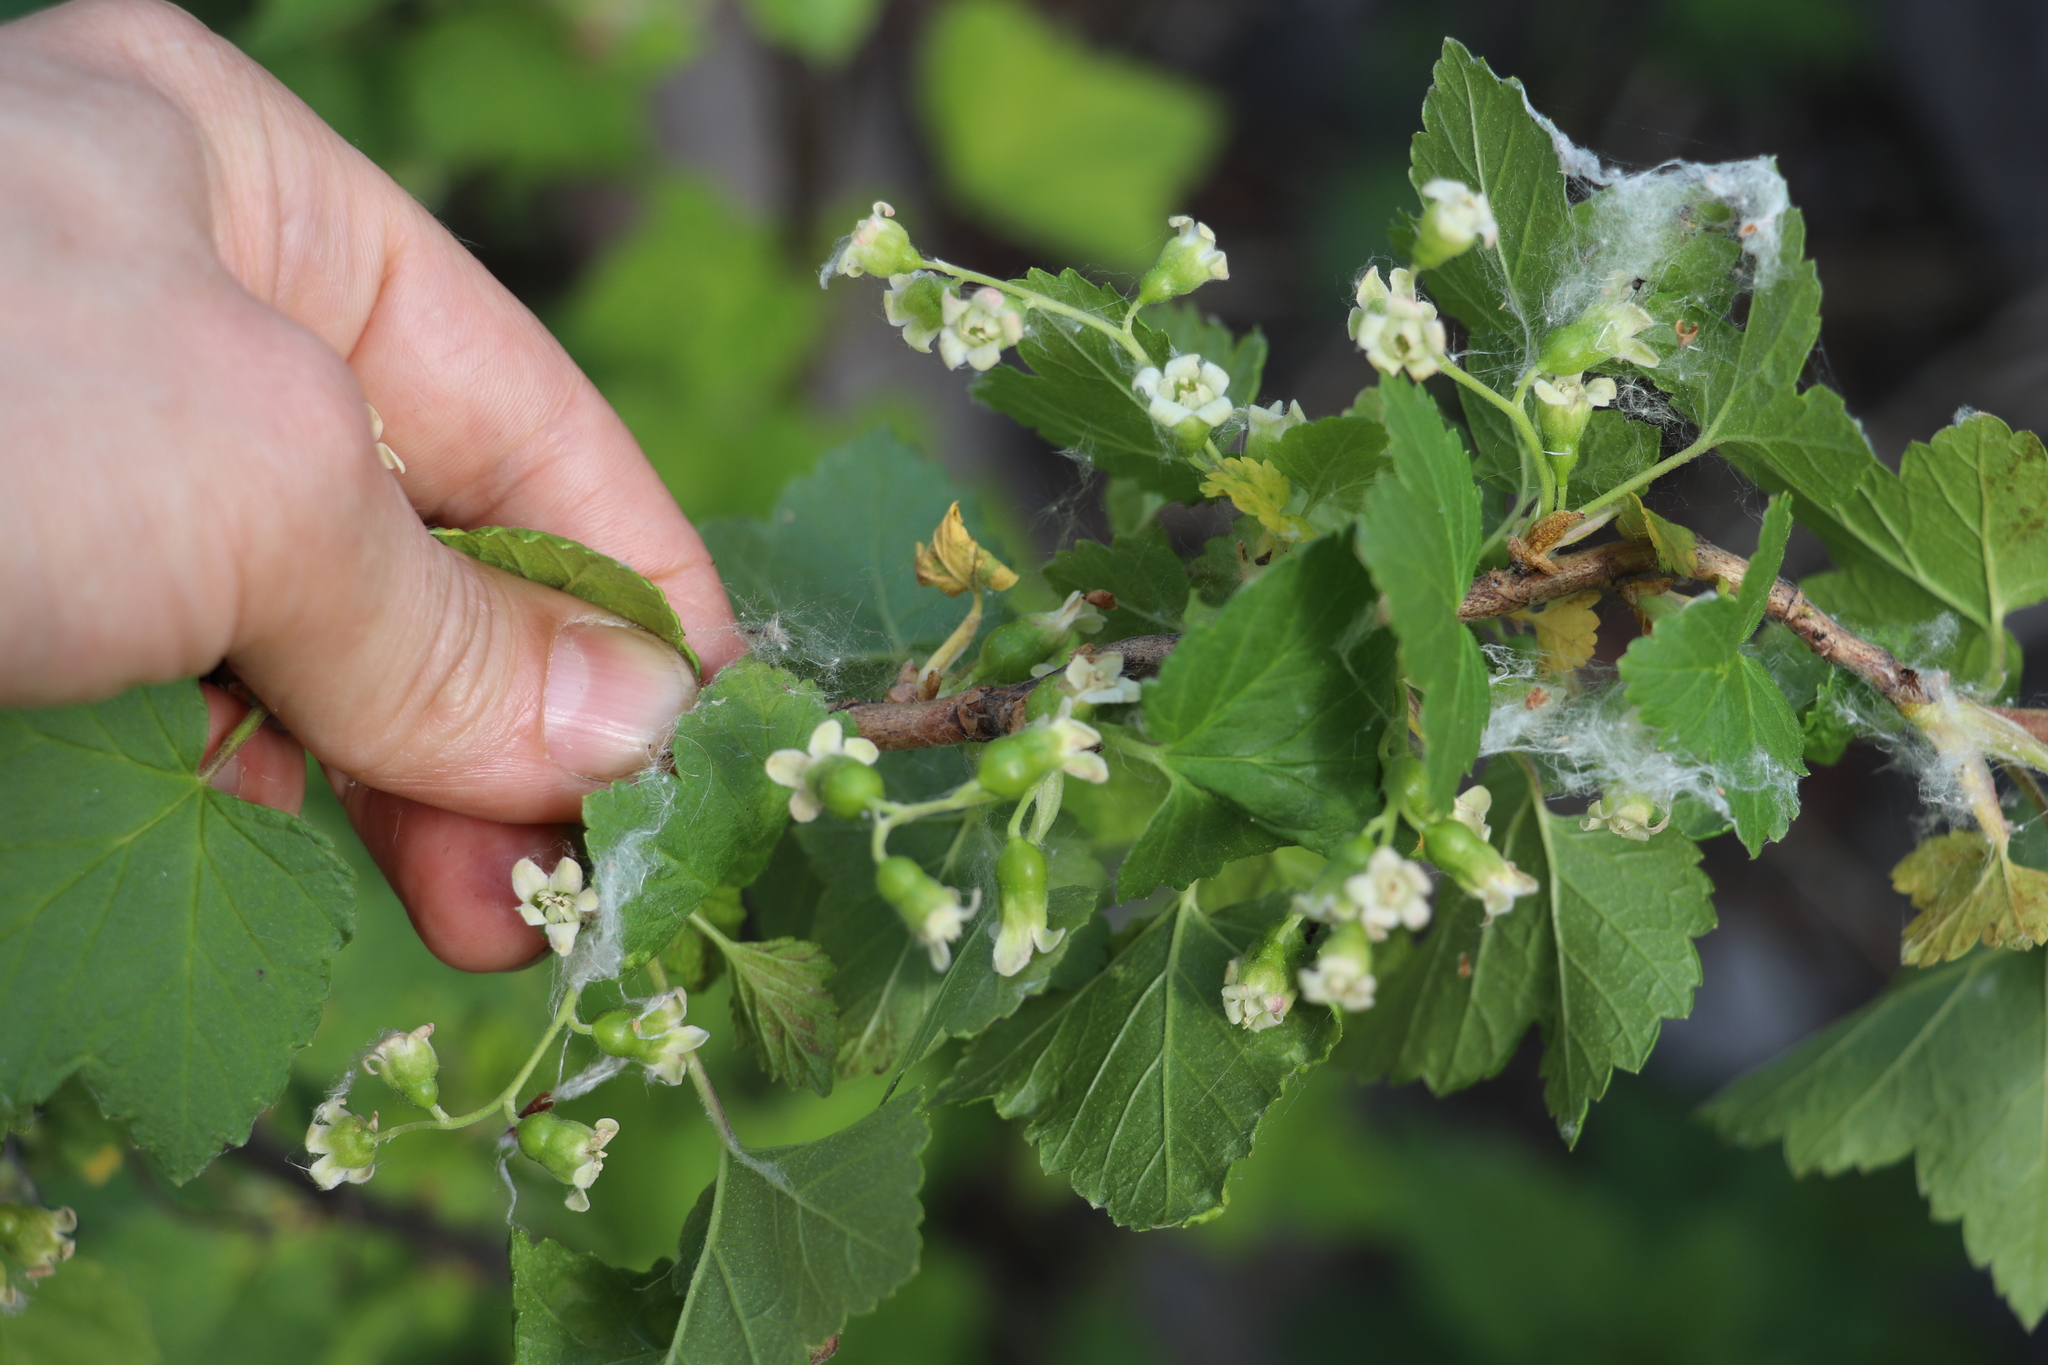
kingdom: Plantae
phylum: Tracheophyta
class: Magnoliopsida
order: Saxifragales
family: Grossulariaceae
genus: Ribes
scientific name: Ribes nigrum
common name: Black currant
